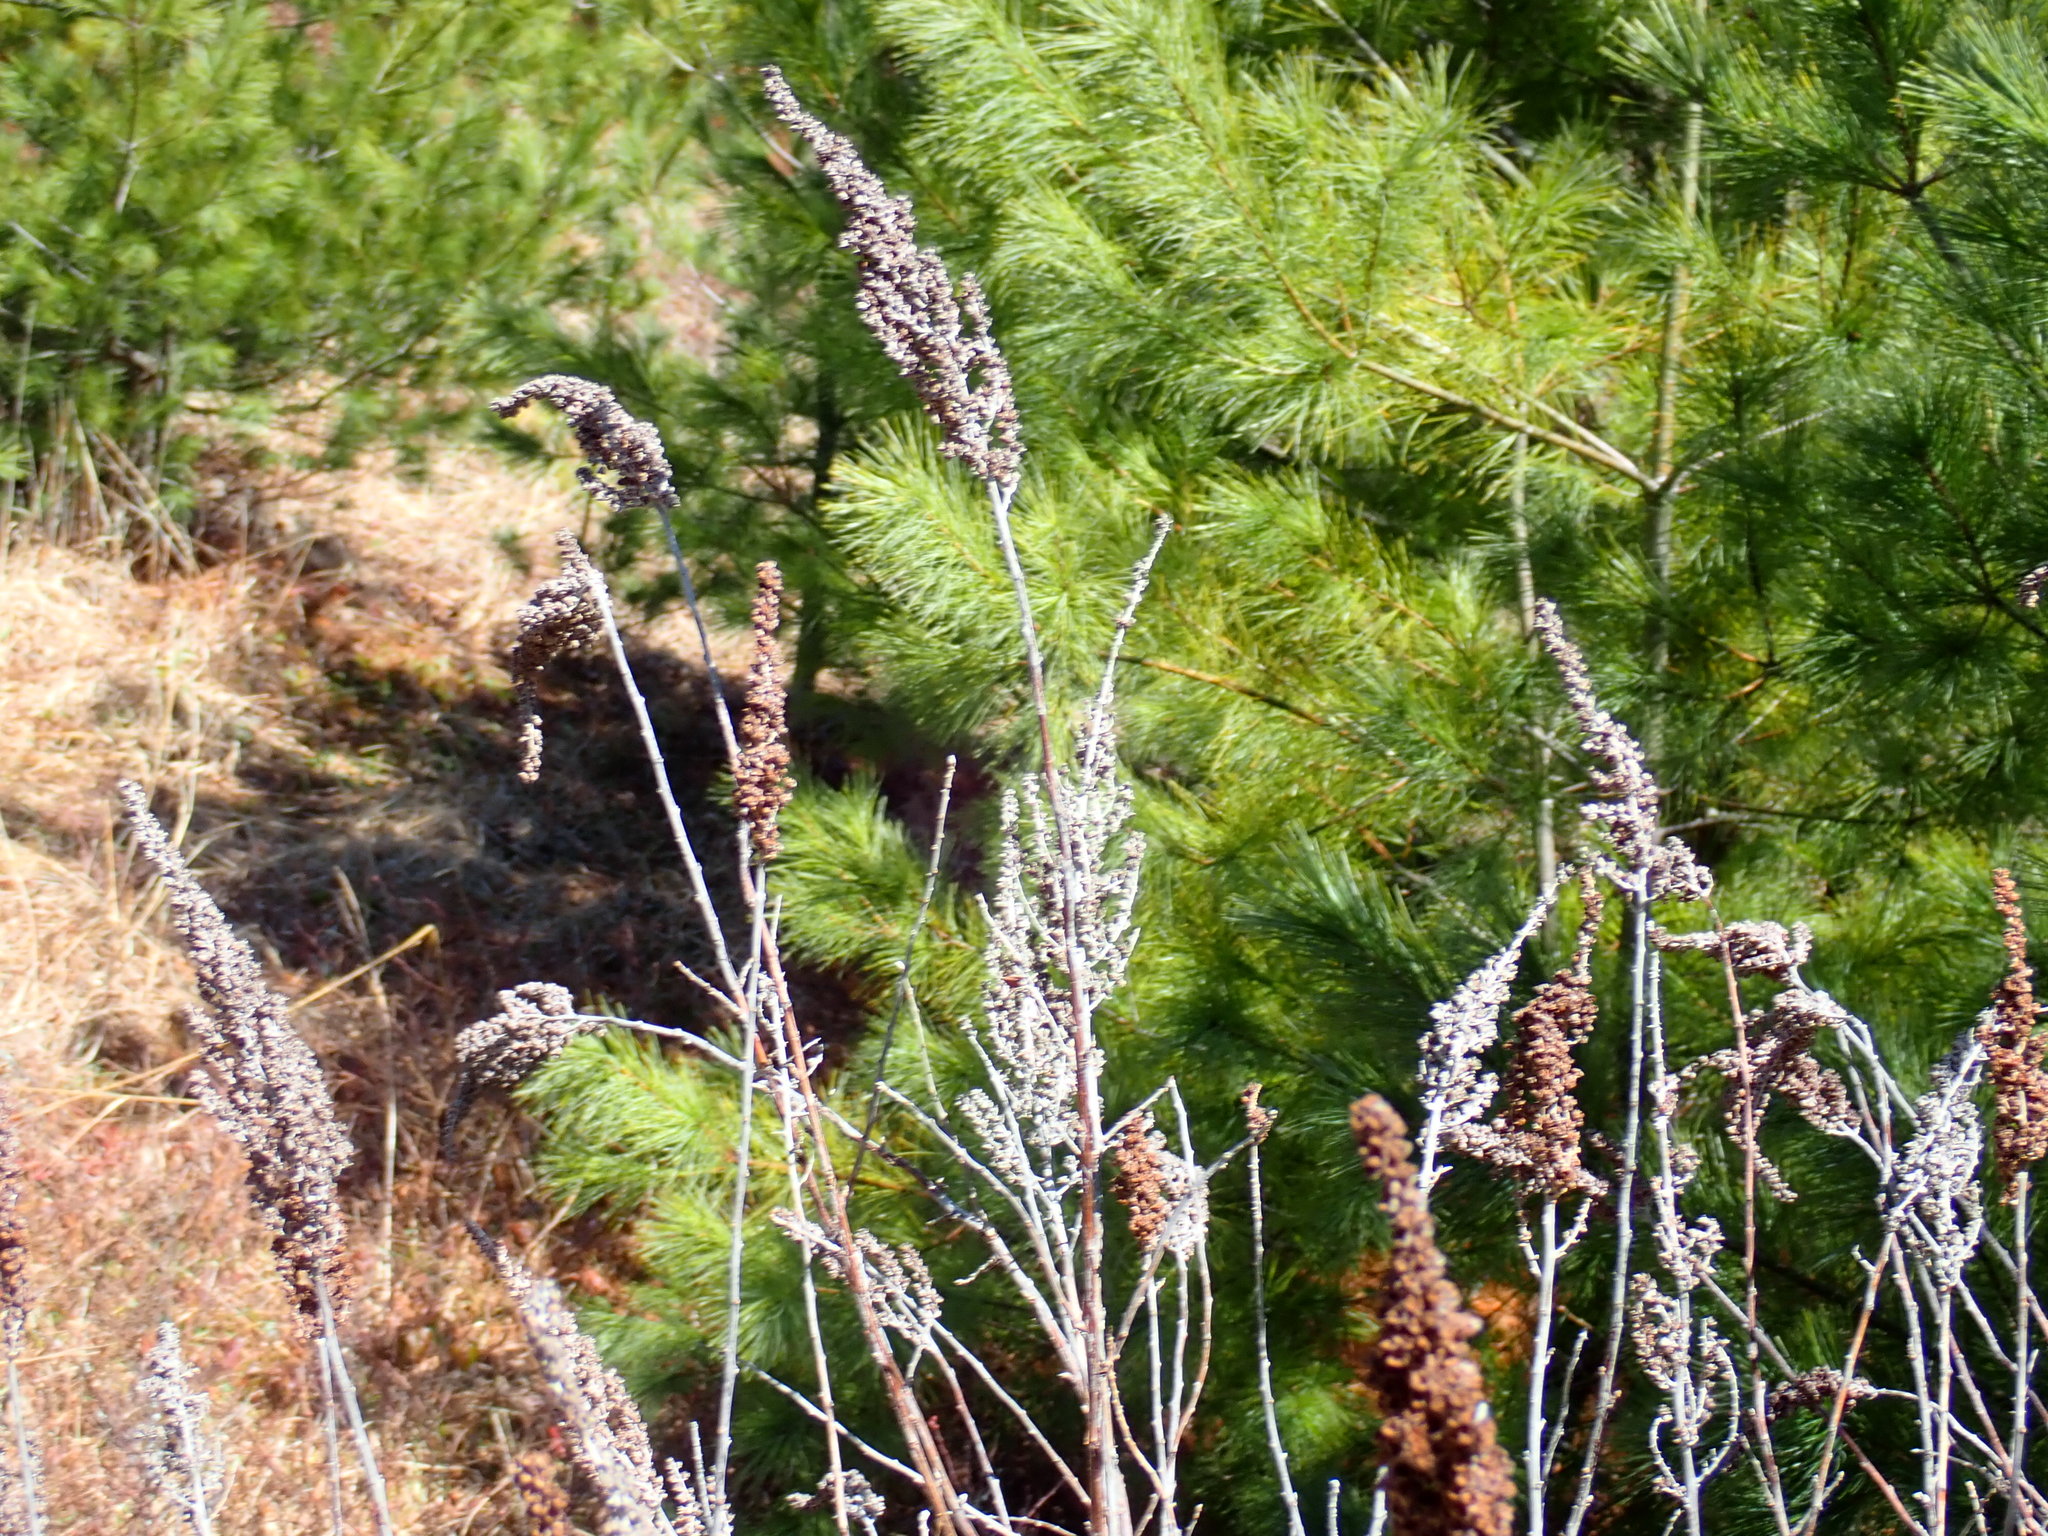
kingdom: Plantae
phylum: Tracheophyta
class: Magnoliopsida
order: Rosales
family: Rosaceae
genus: Spiraea
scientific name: Spiraea tomentosa
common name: Hardhack
